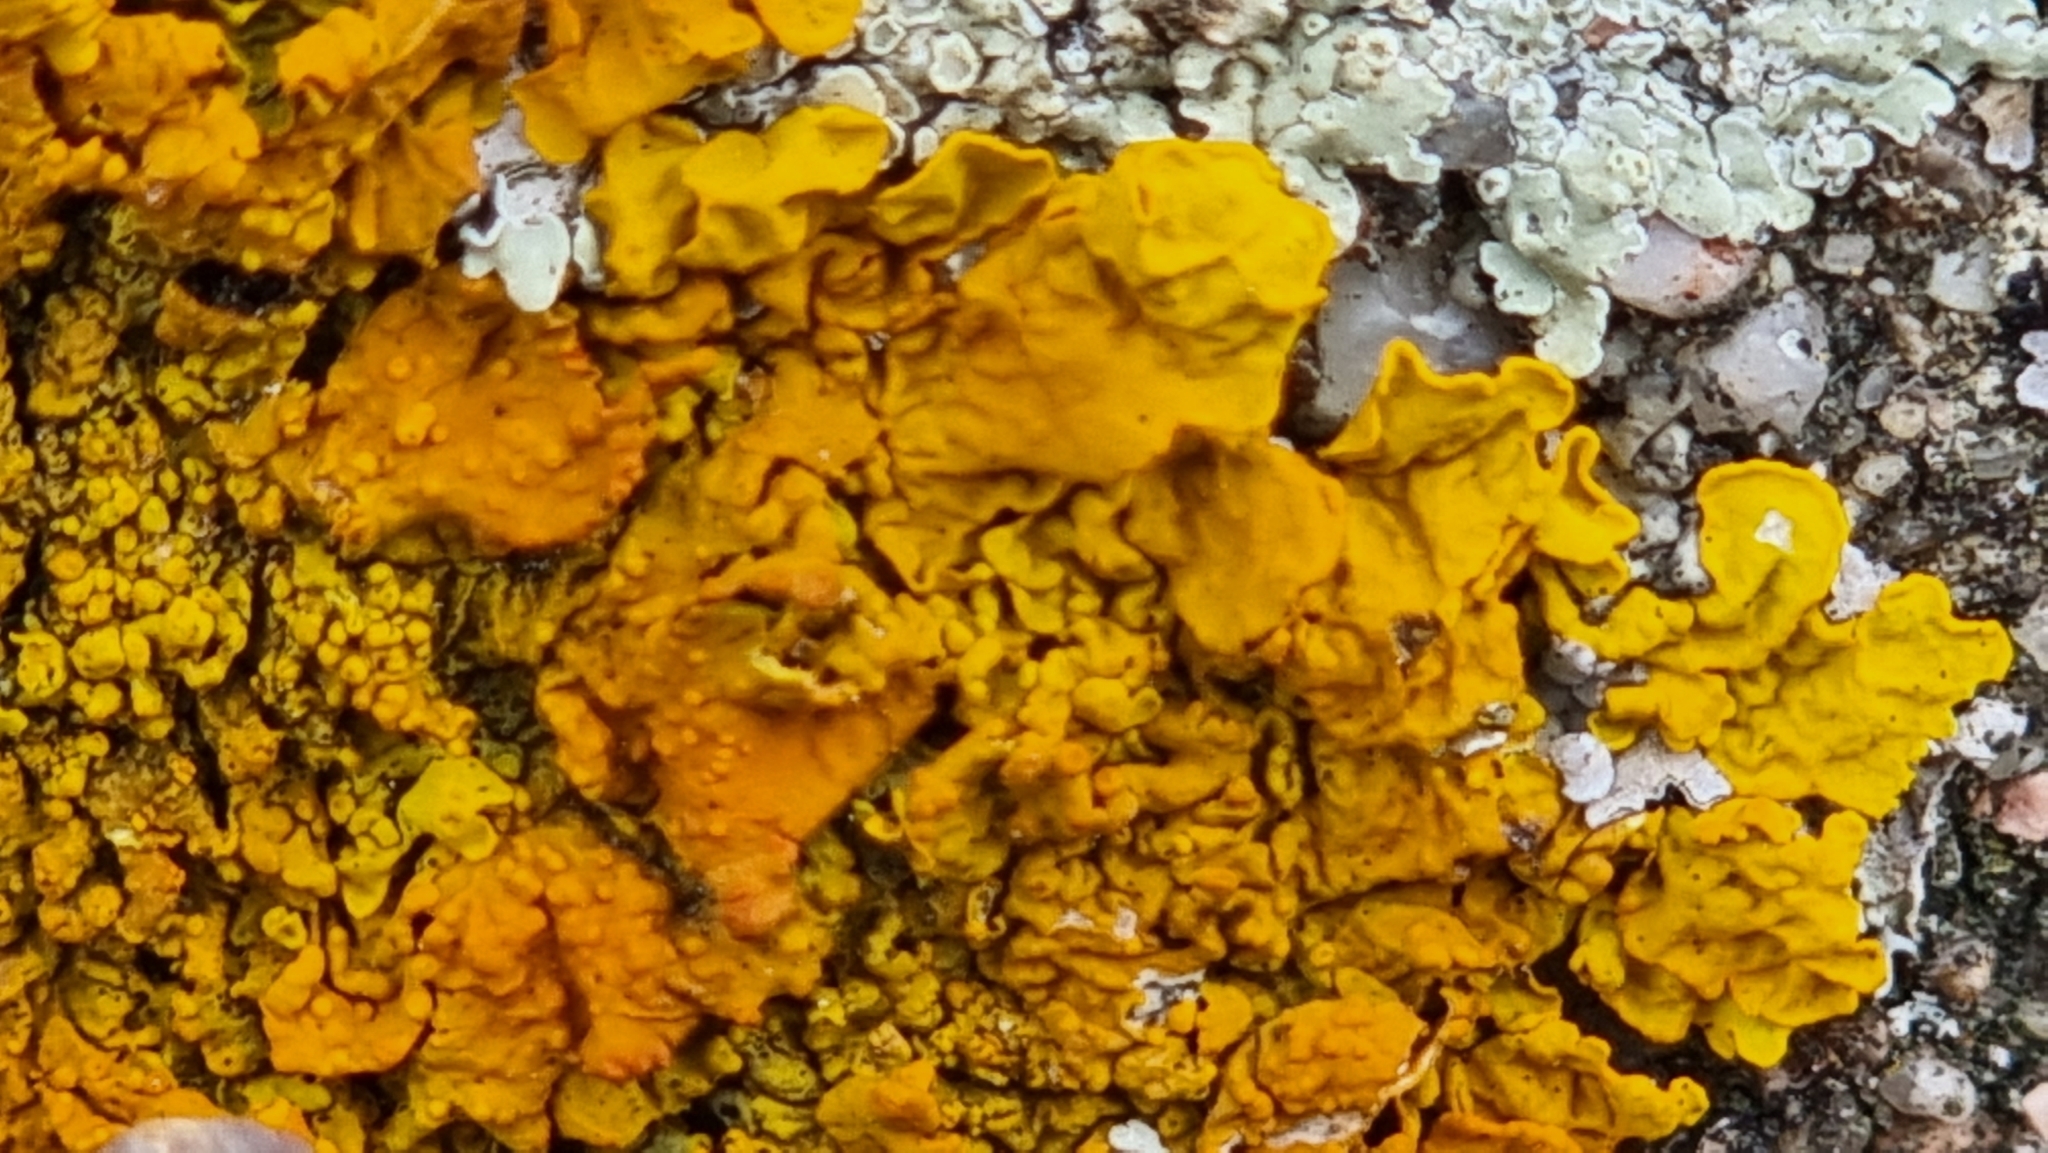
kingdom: Fungi
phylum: Ascomycota
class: Lecanoromycetes
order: Teloschistales
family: Teloschistaceae
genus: Xanthoria
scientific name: Xanthoria parietina
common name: Common orange lichen
